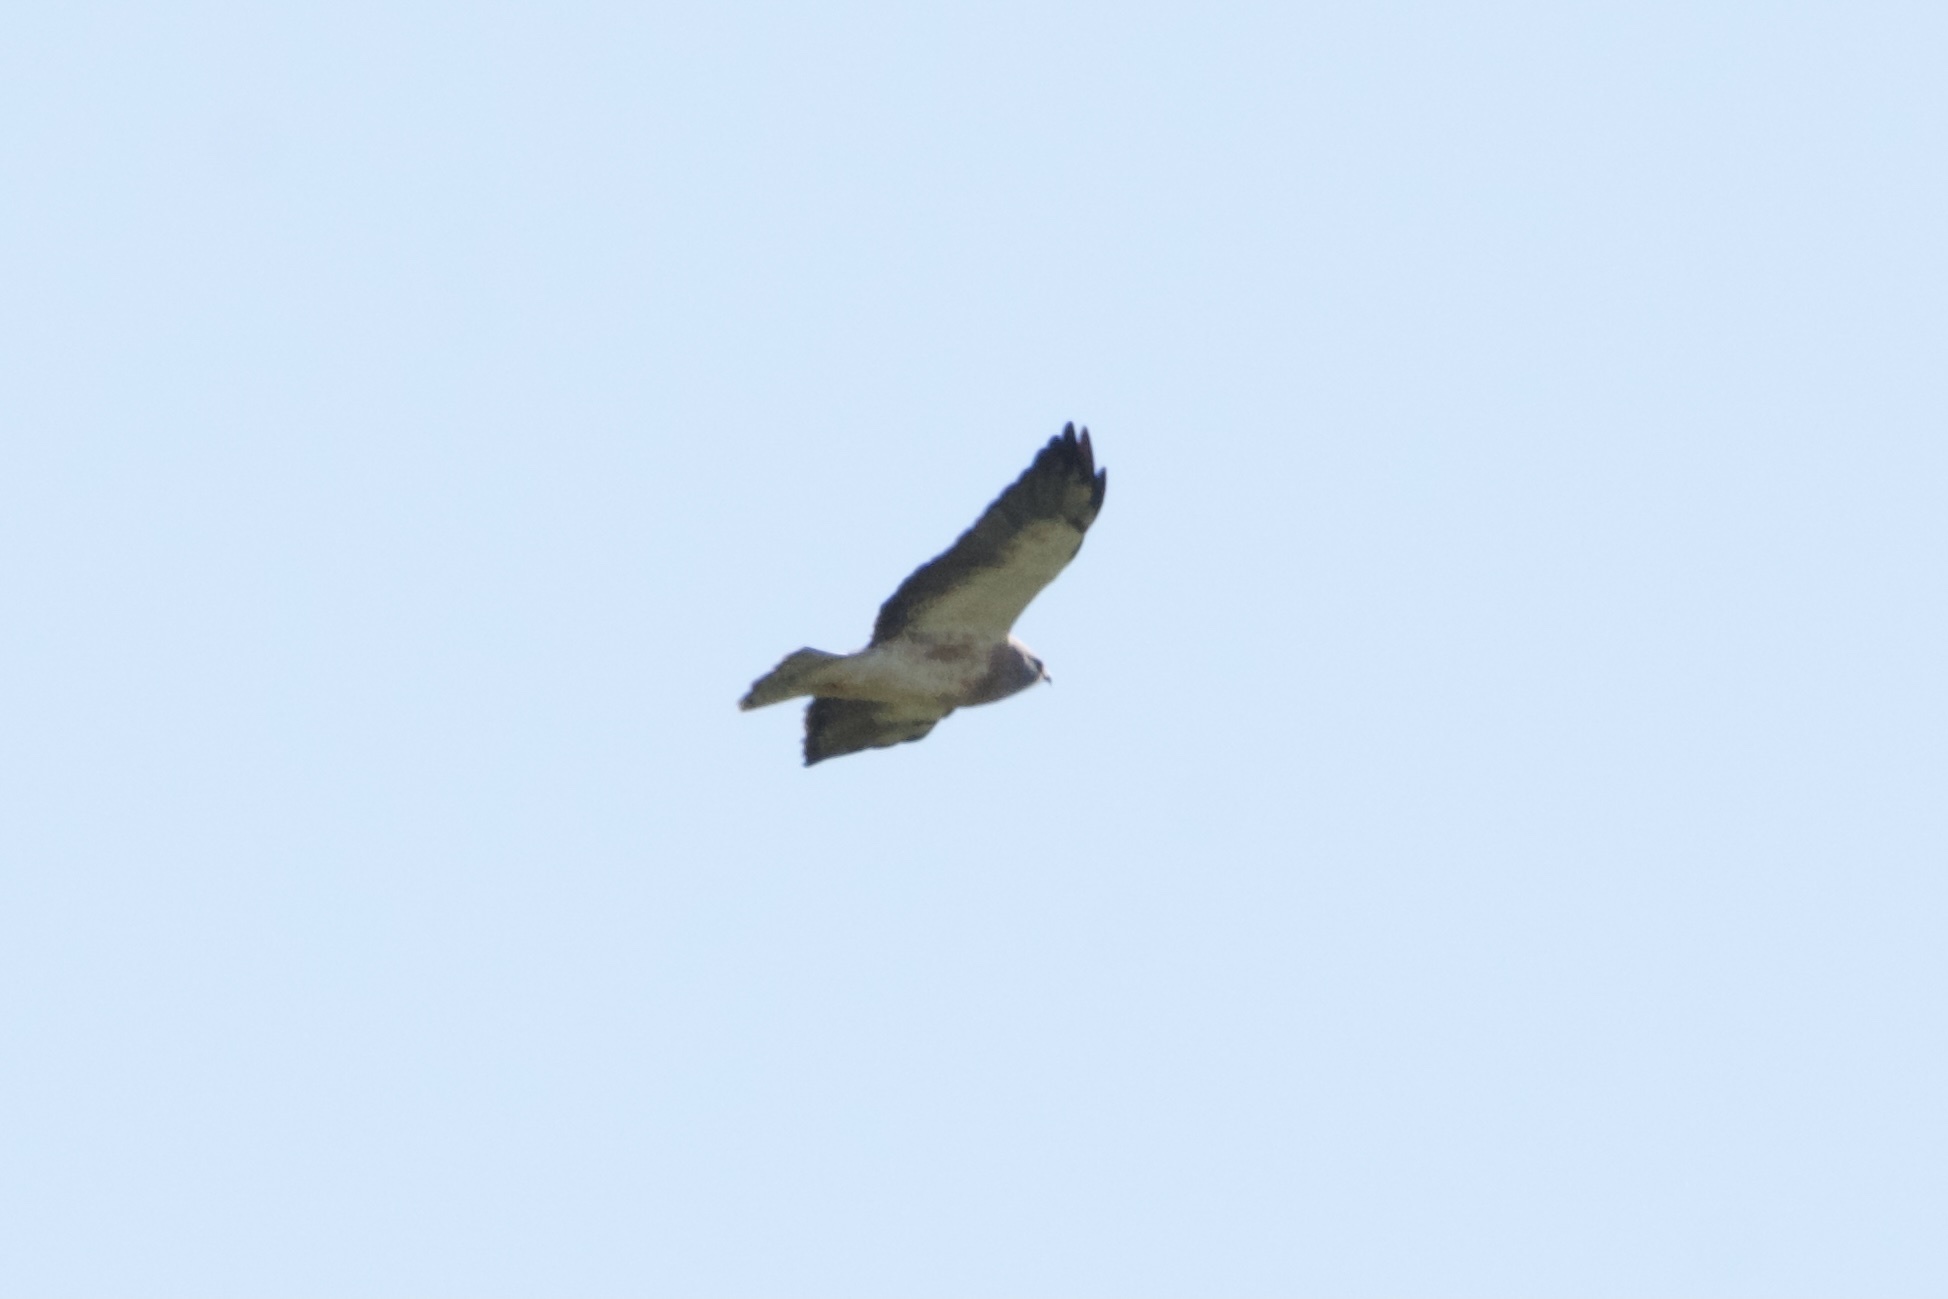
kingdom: Animalia
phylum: Chordata
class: Aves
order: Accipitriformes
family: Accipitridae
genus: Buteo
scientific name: Buteo swainsoni
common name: Swainson's hawk
